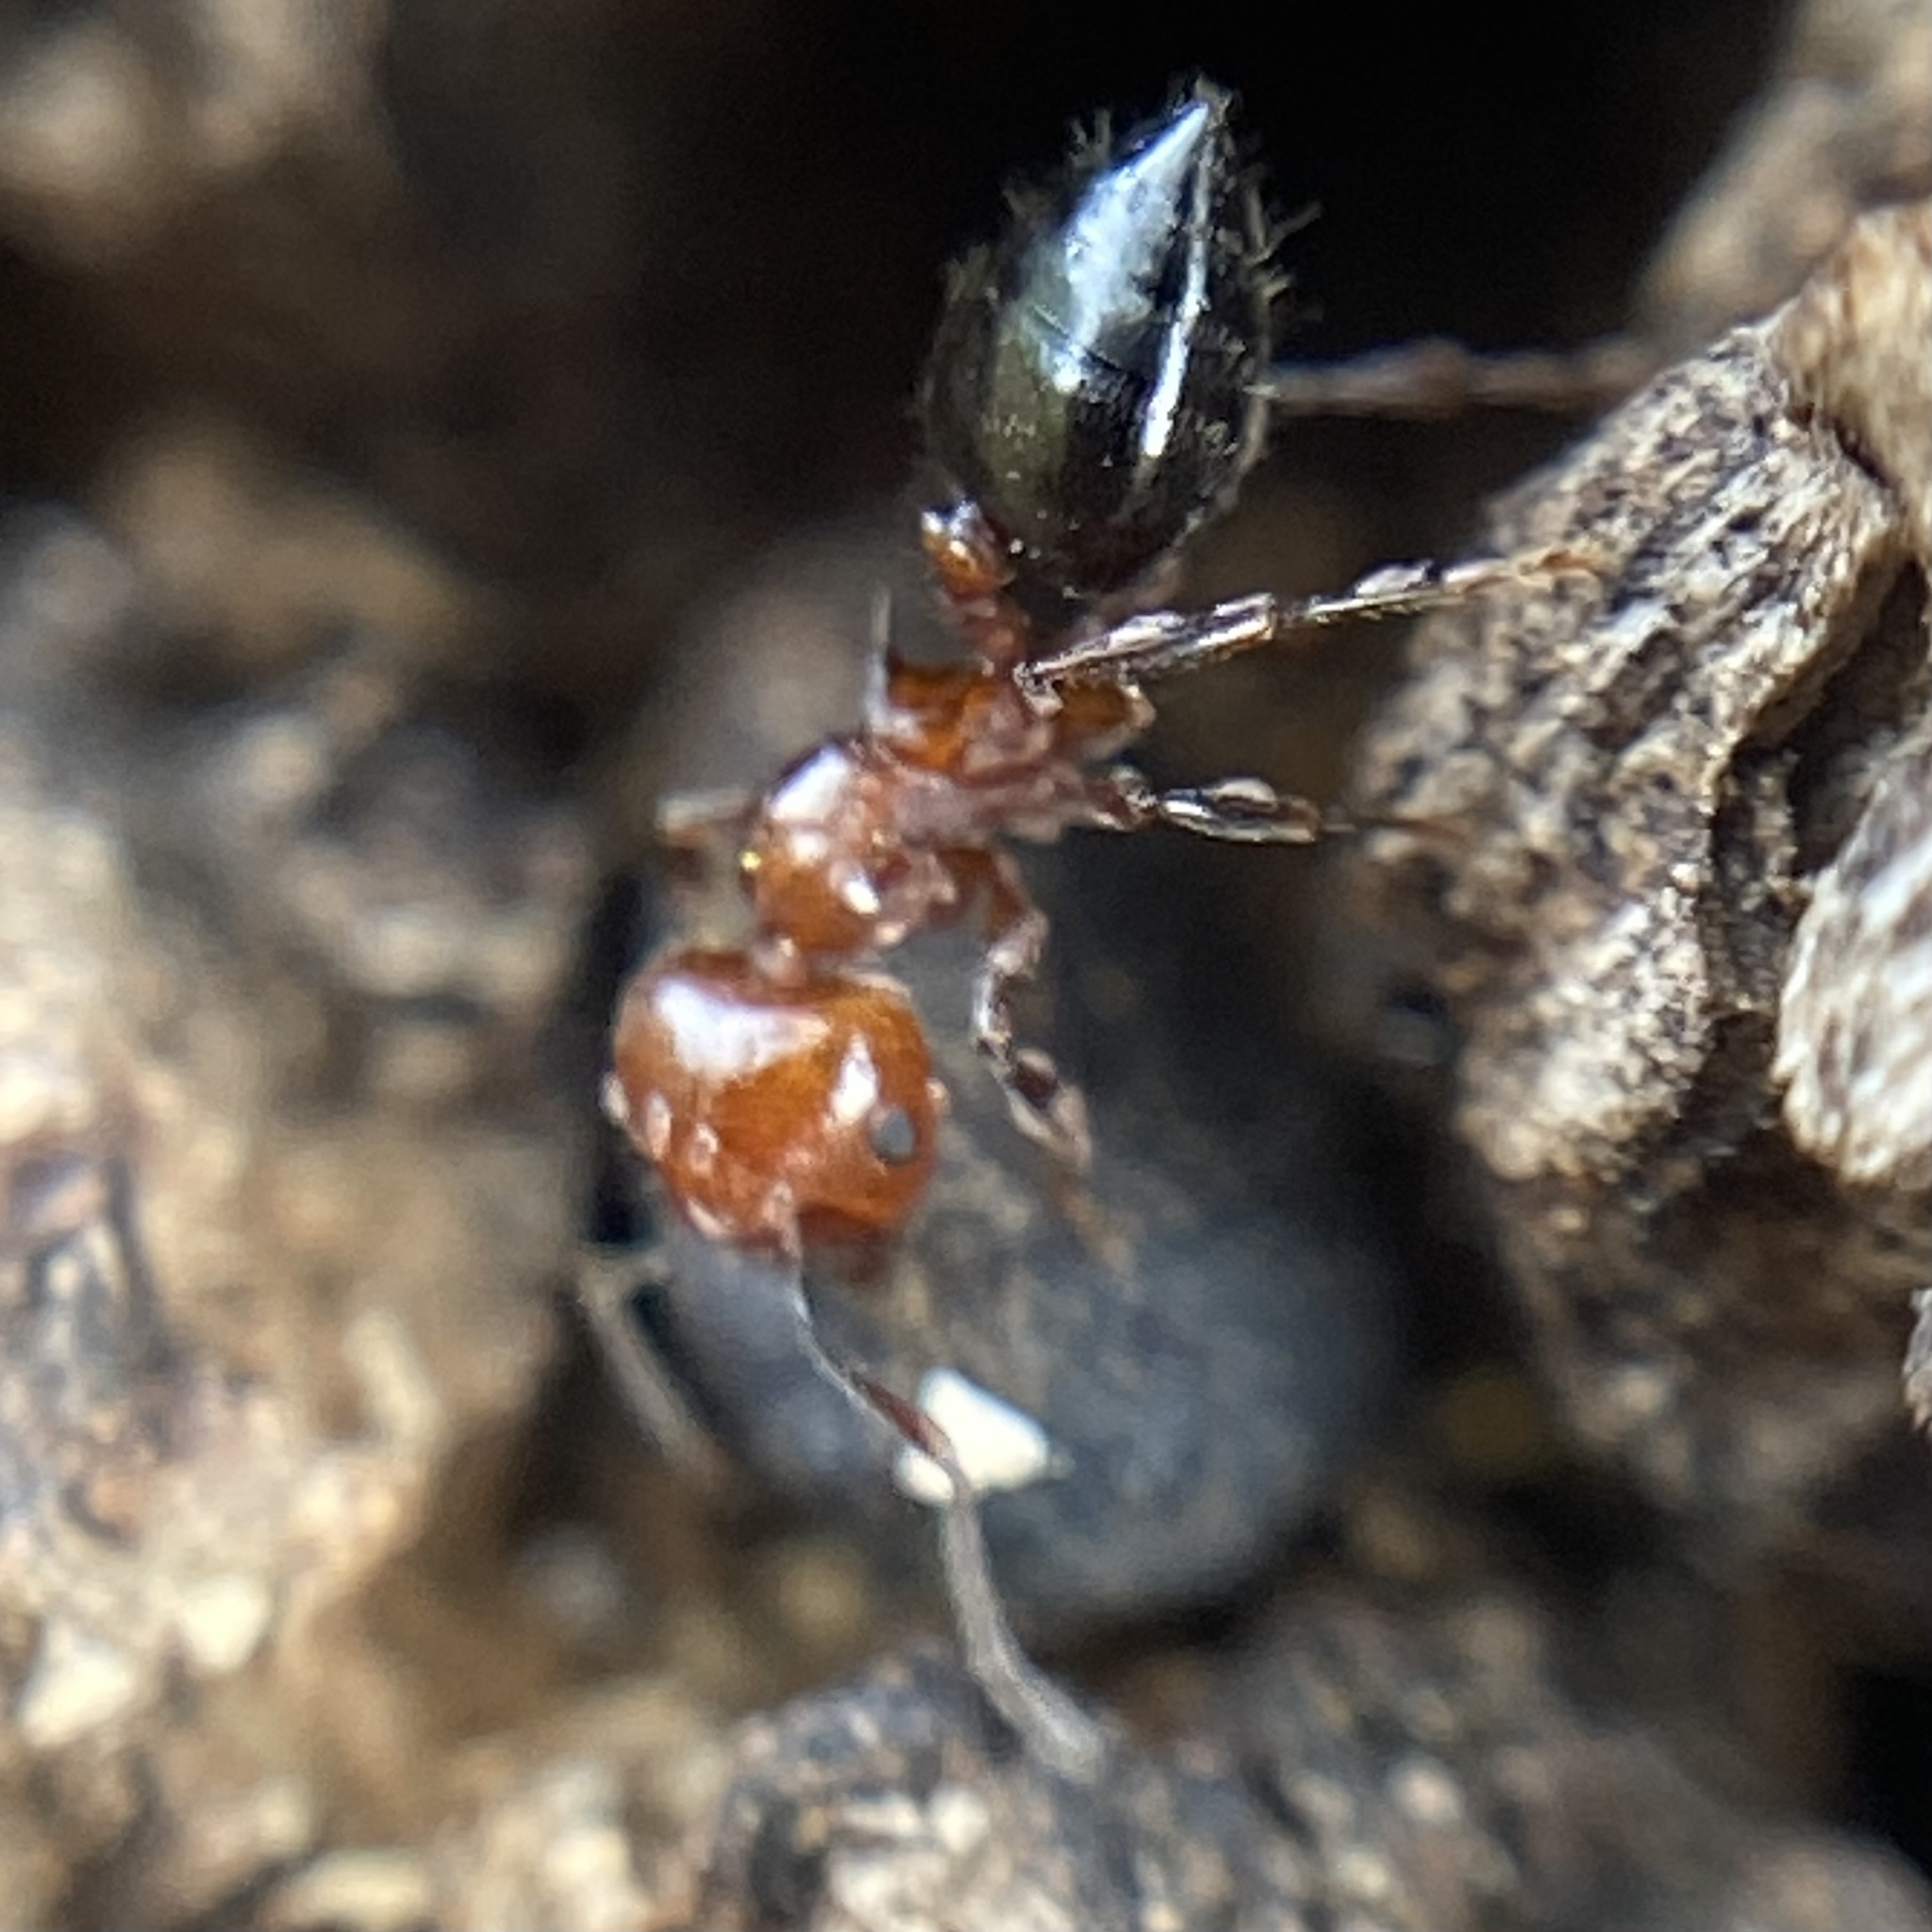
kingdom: Animalia
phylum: Arthropoda
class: Insecta
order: Hymenoptera
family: Formicidae
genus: Crematogaster
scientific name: Crematogaster laeviuscula
